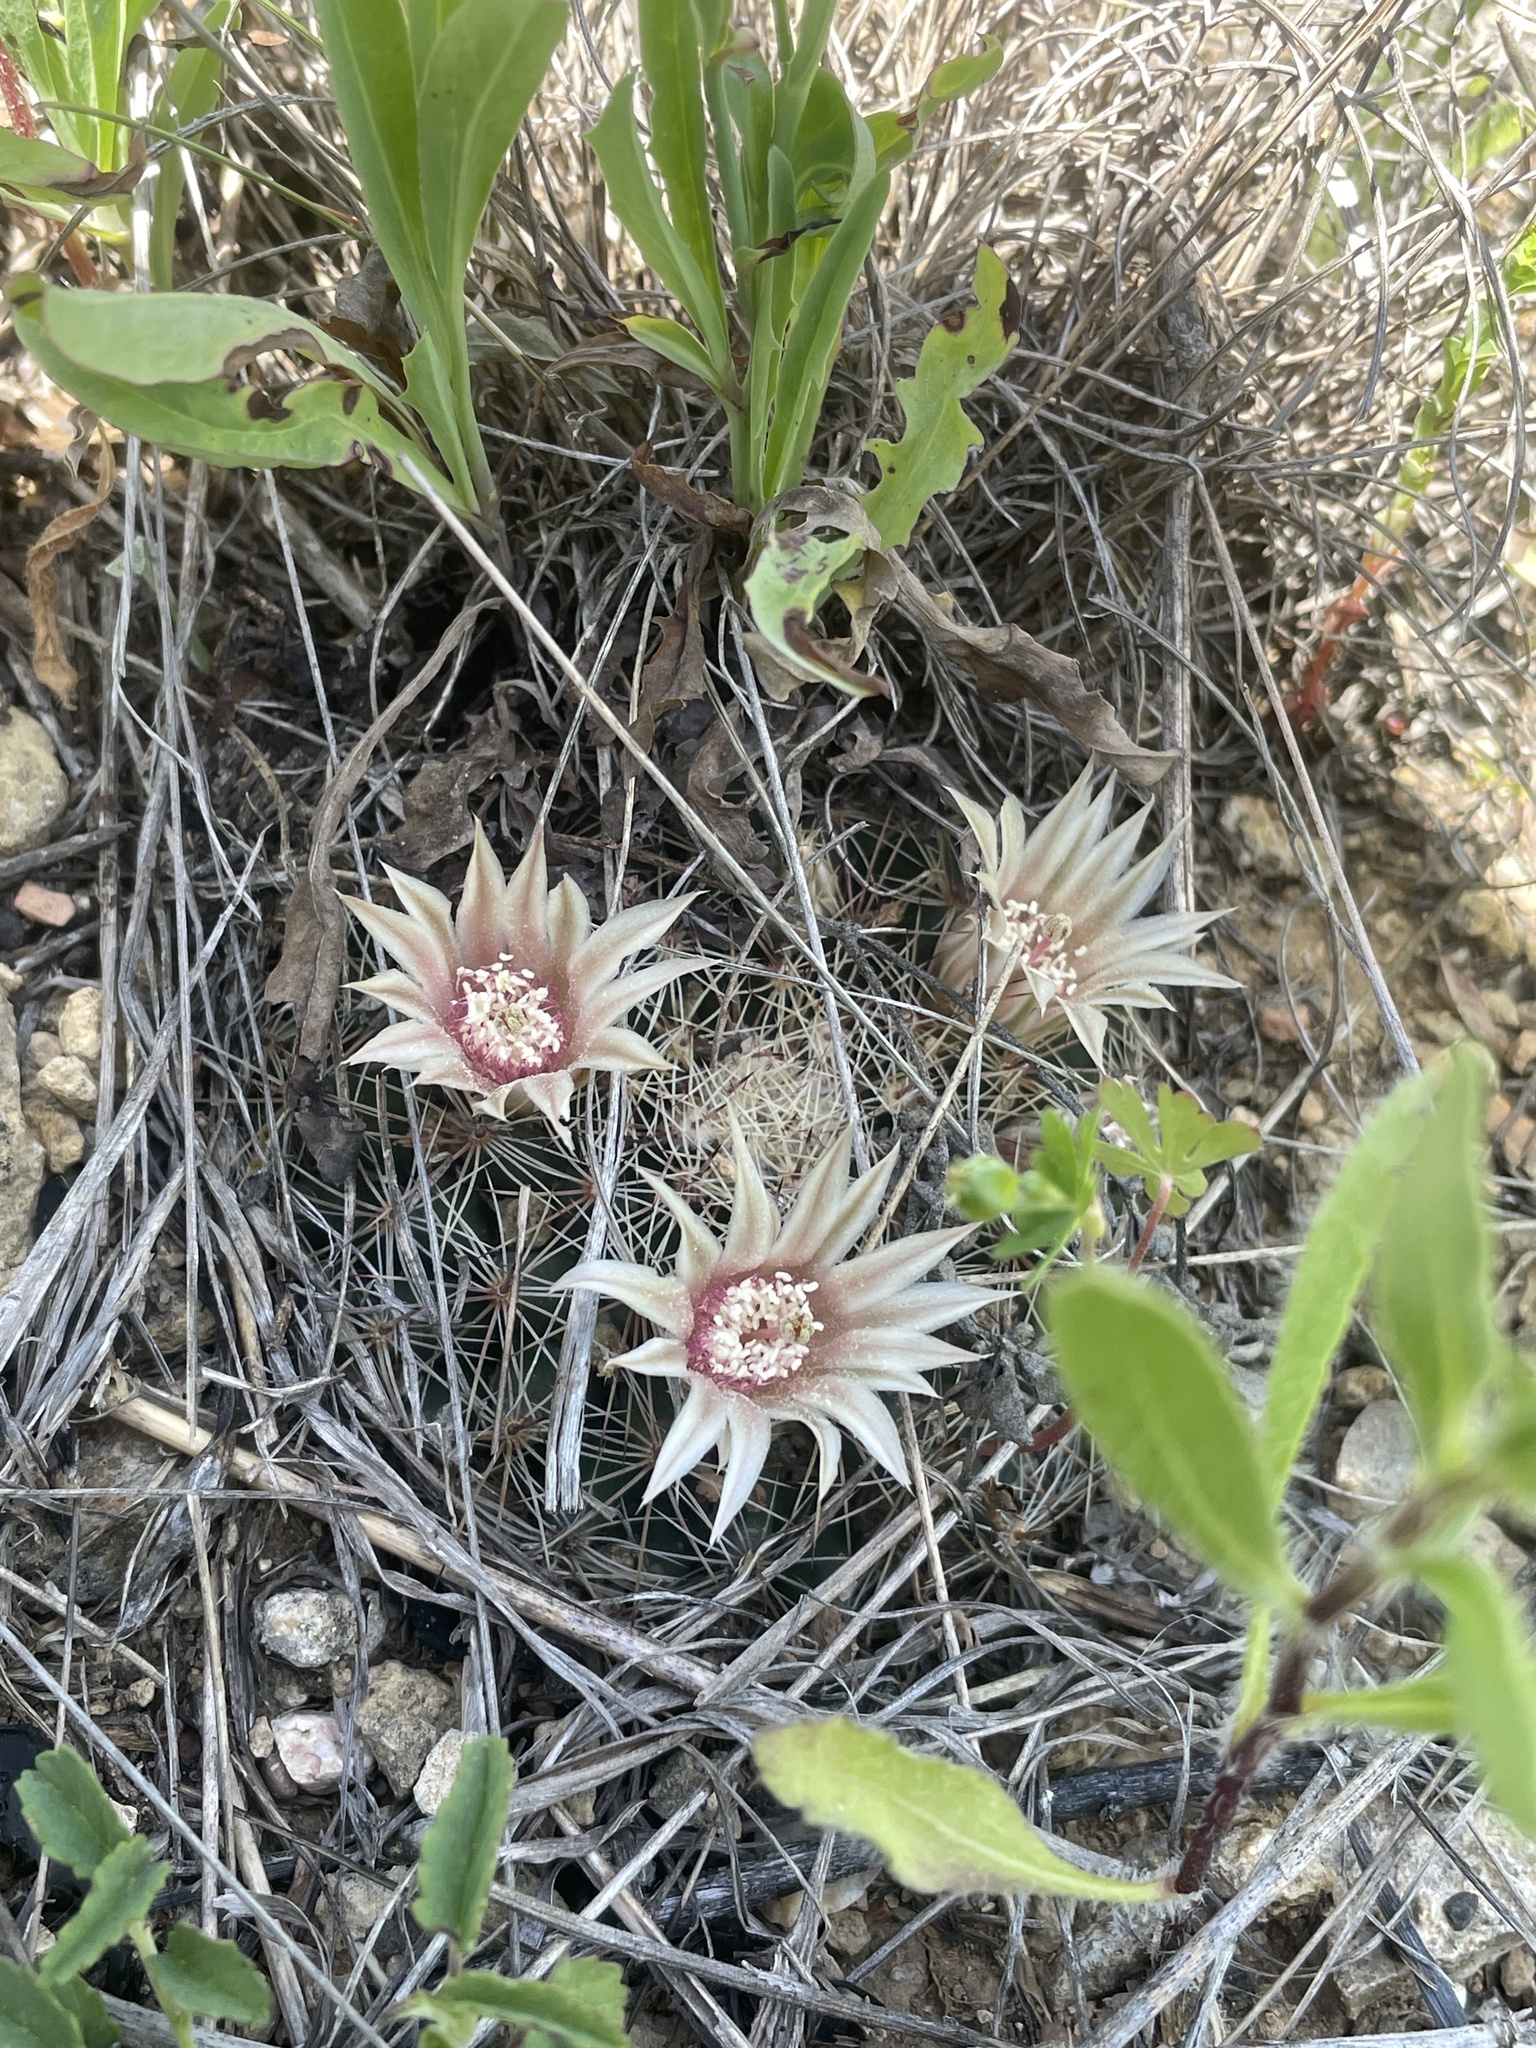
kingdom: Plantae
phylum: Tracheophyta
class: Magnoliopsida
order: Caryophyllales
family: Cactaceae
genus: Mammillaria
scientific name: Mammillaria heyderi
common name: Little nipple cactus
